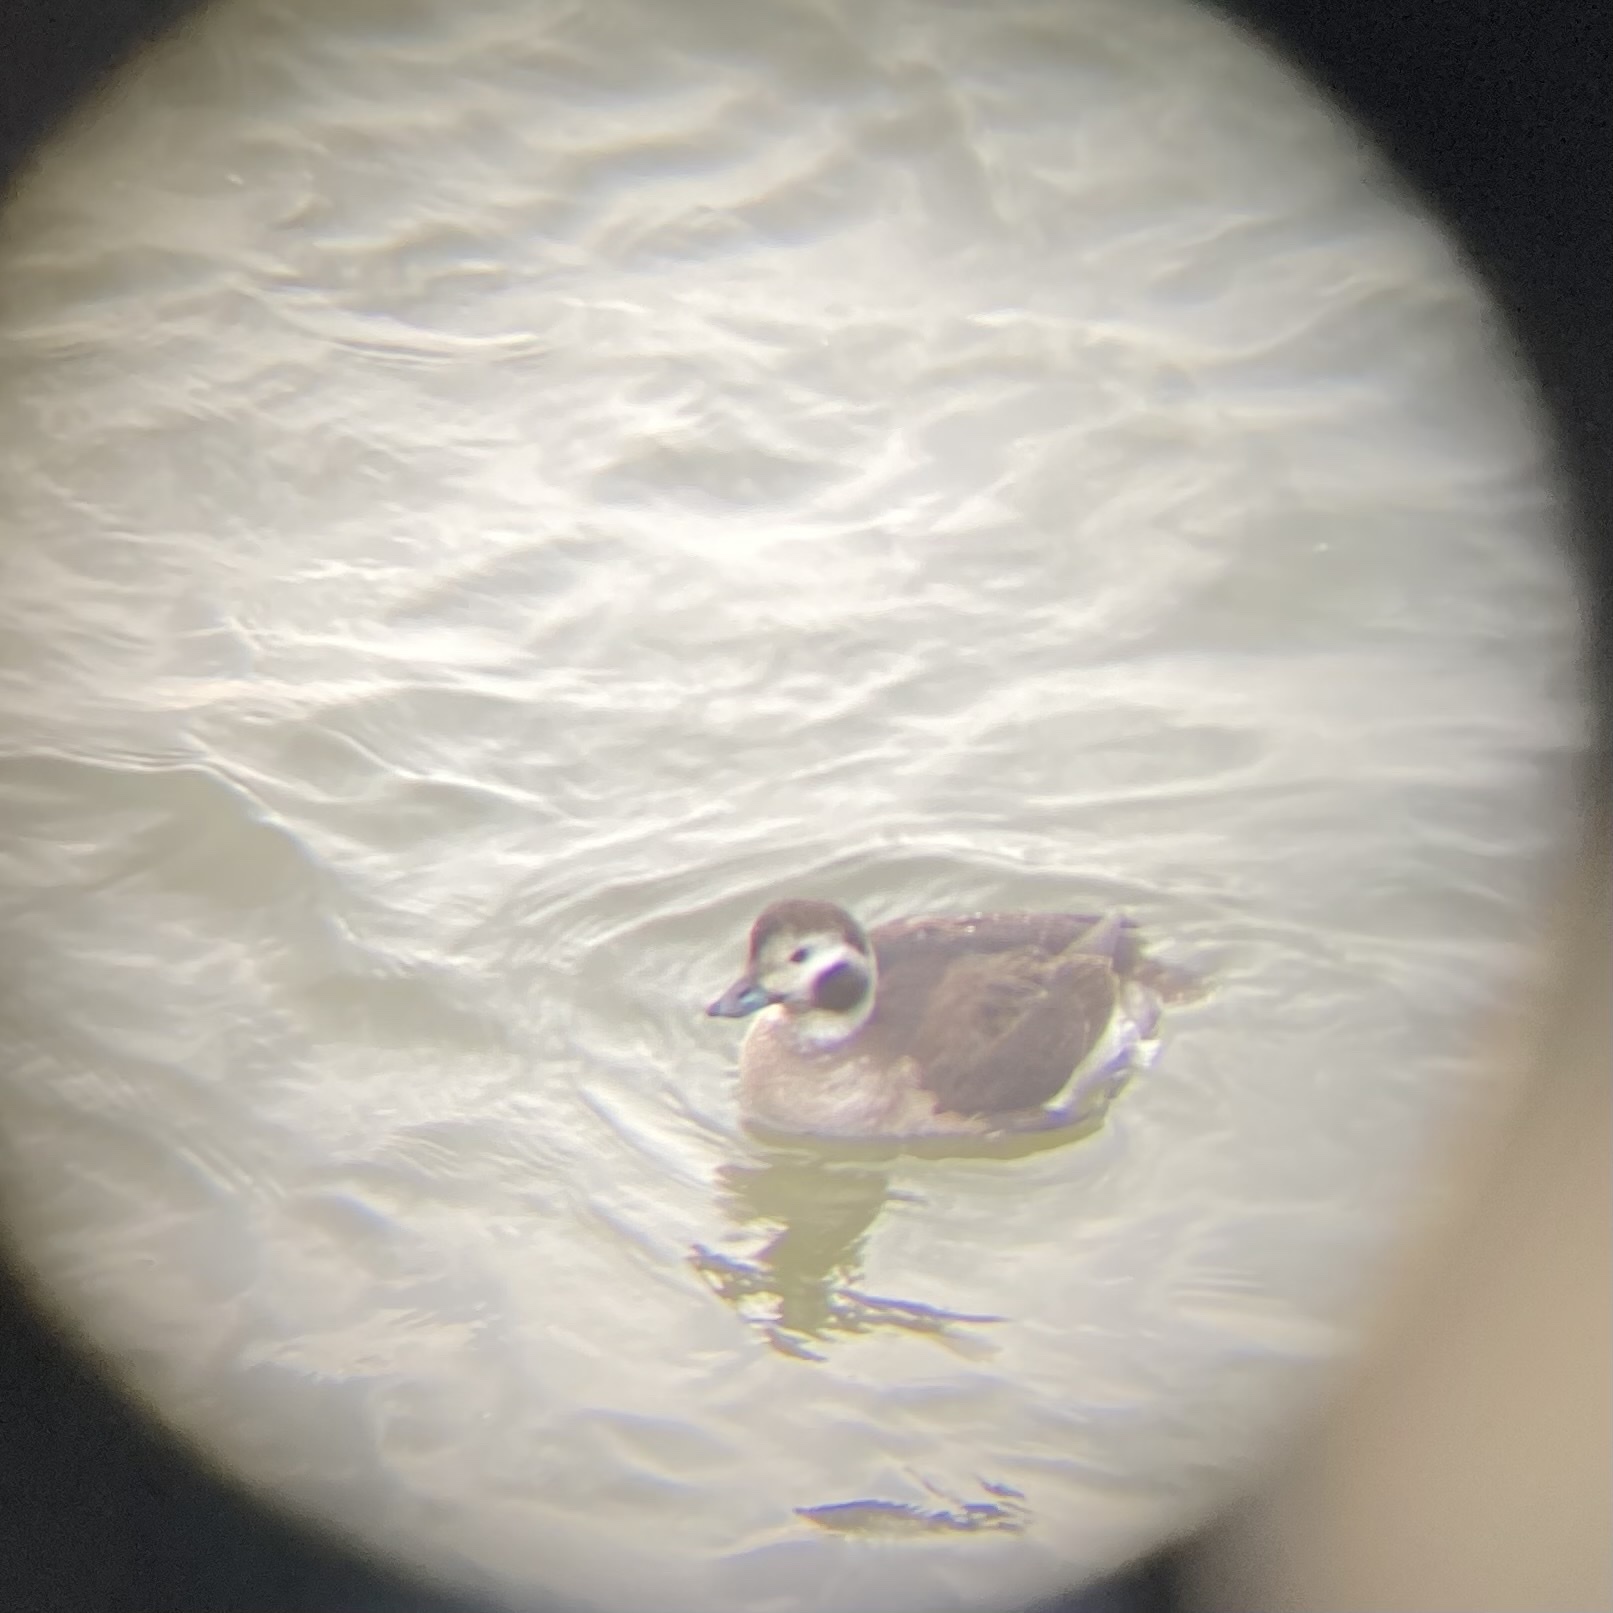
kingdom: Animalia
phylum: Chordata
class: Aves
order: Anseriformes
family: Anatidae
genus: Clangula
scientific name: Clangula hyemalis
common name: Long-tailed duck
